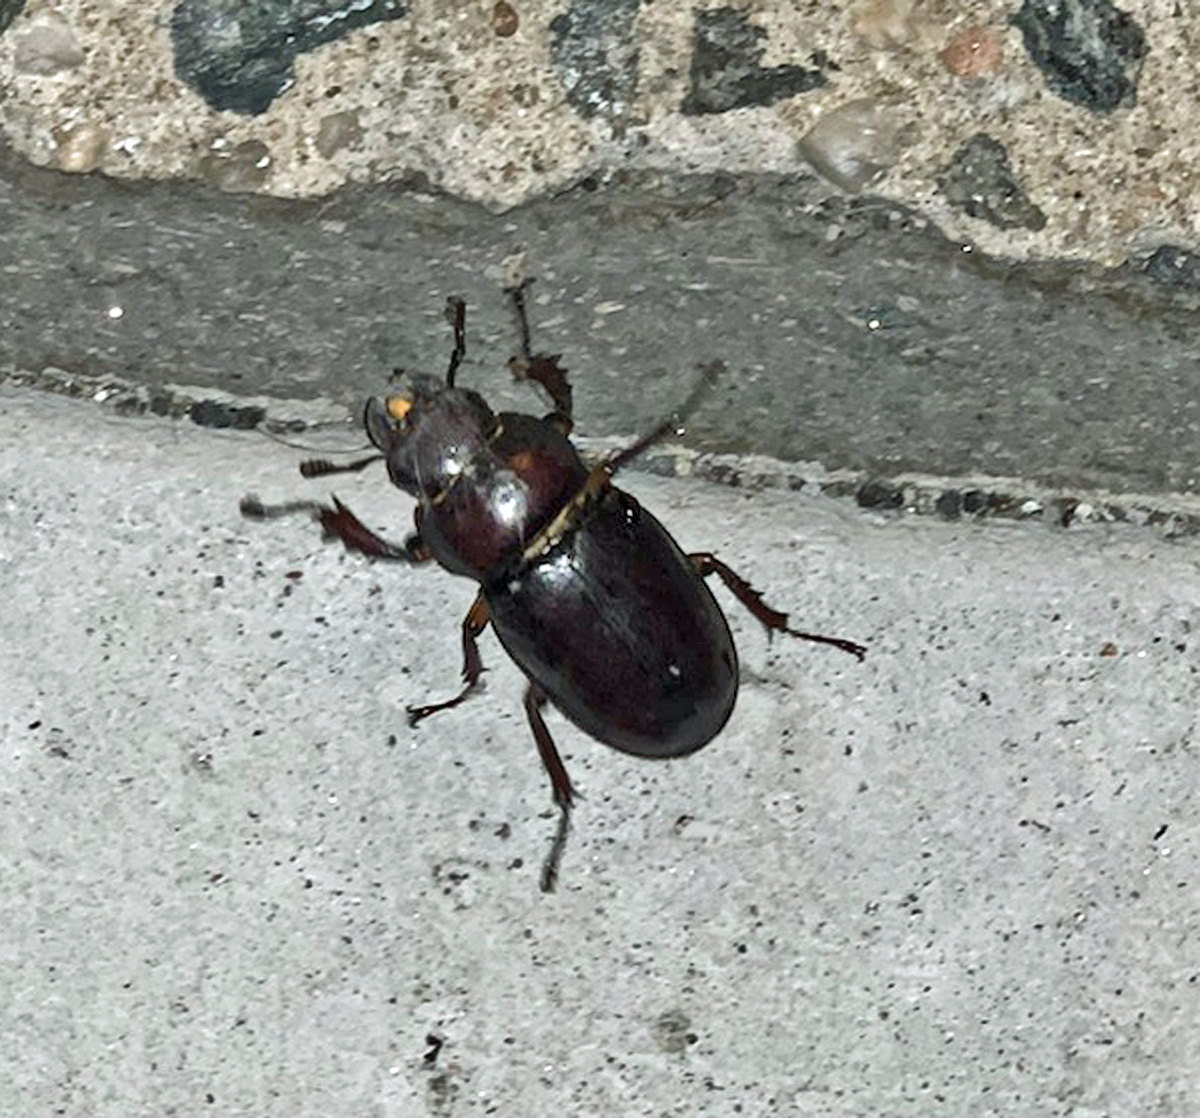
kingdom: Animalia
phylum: Arthropoda
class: Insecta
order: Coleoptera
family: Lucanidae
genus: Lucanus
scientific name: Lucanus capreolus
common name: Stag beetle
